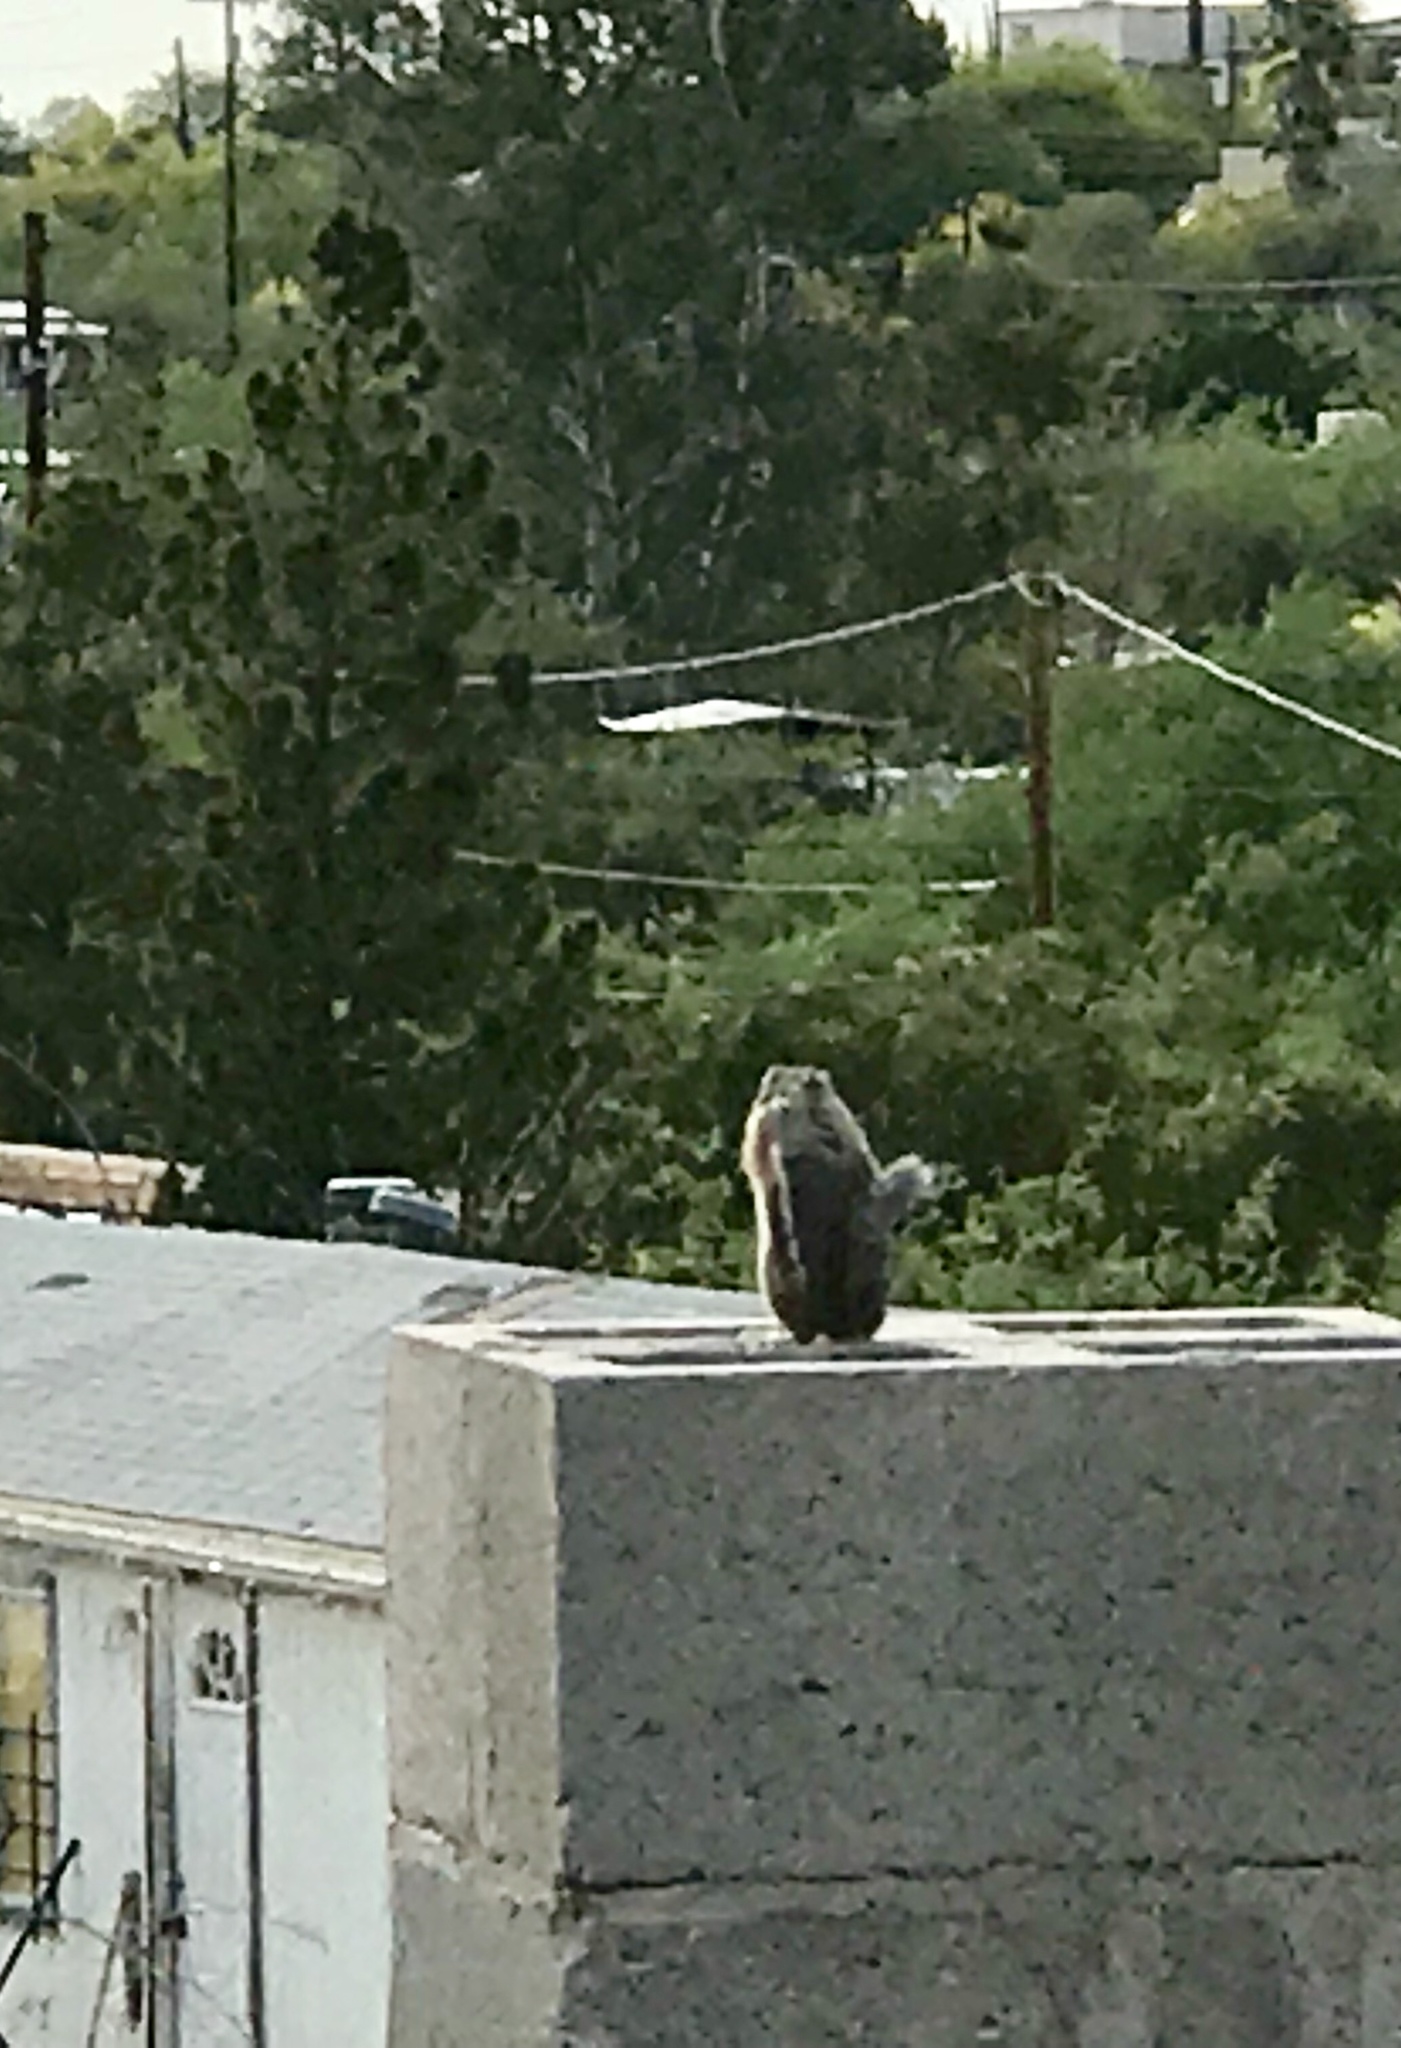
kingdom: Animalia
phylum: Chordata
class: Mammalia
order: Rodentia
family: Sciuridae
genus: Ammospermophilus
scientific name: Ammospermophilus harrisii
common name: Harris's antelope squirrel
